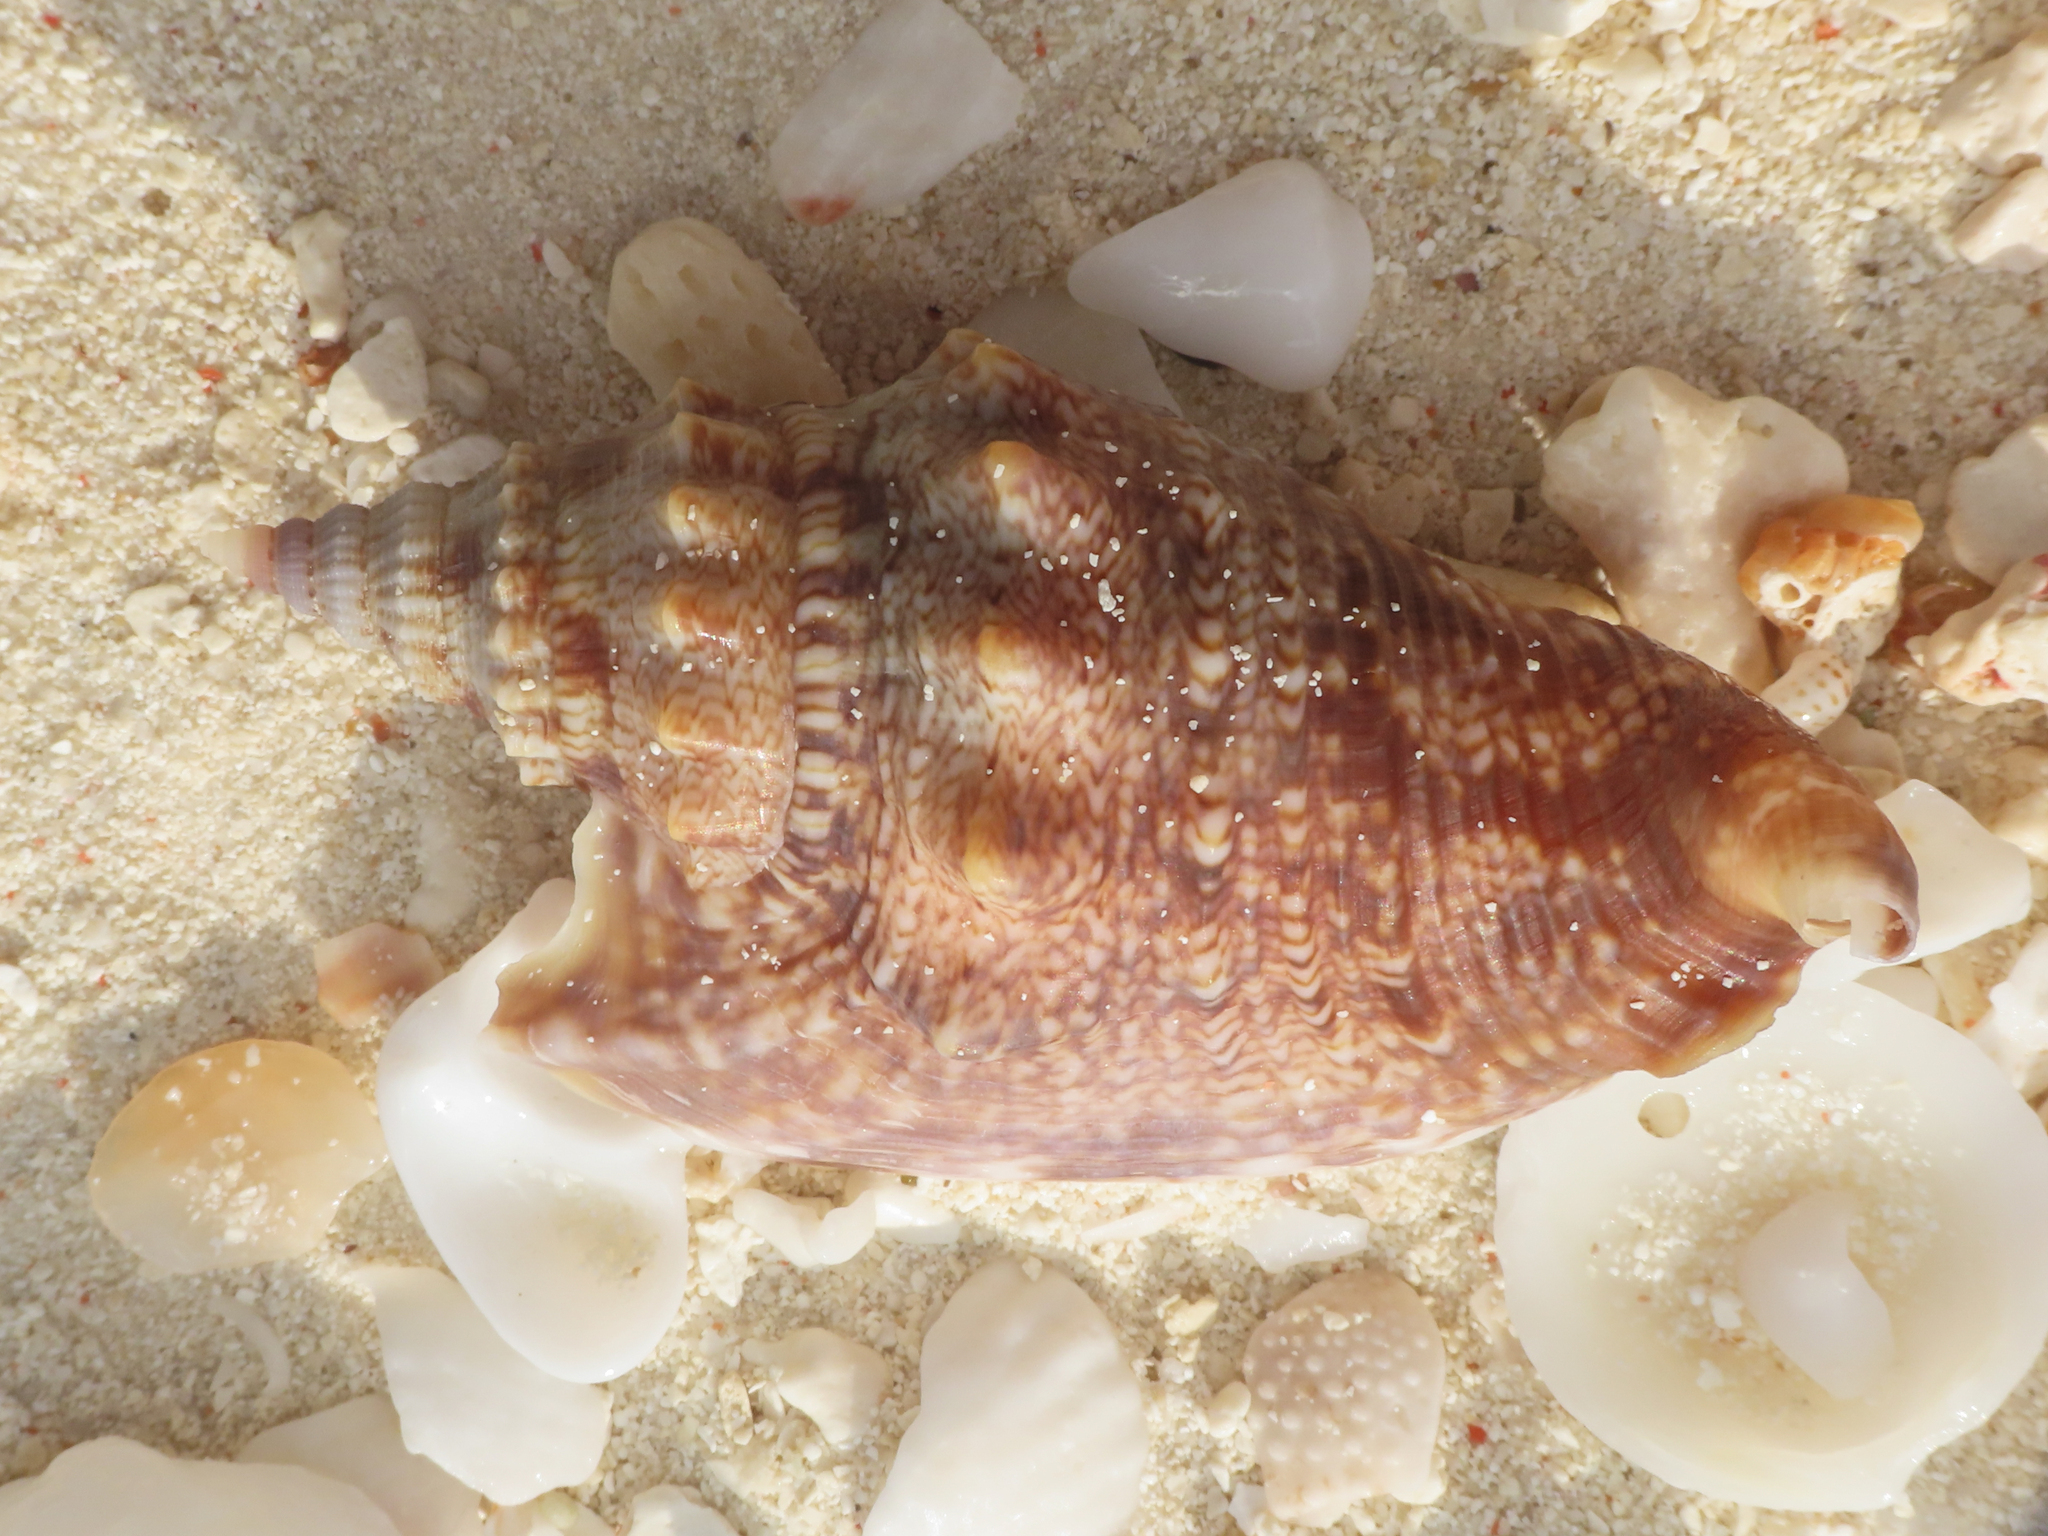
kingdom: Animalia
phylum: Mollusca
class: Gastropoda
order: Littorinimorpha
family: Strombidae
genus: Euprotomus
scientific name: Euprotomus aurora
